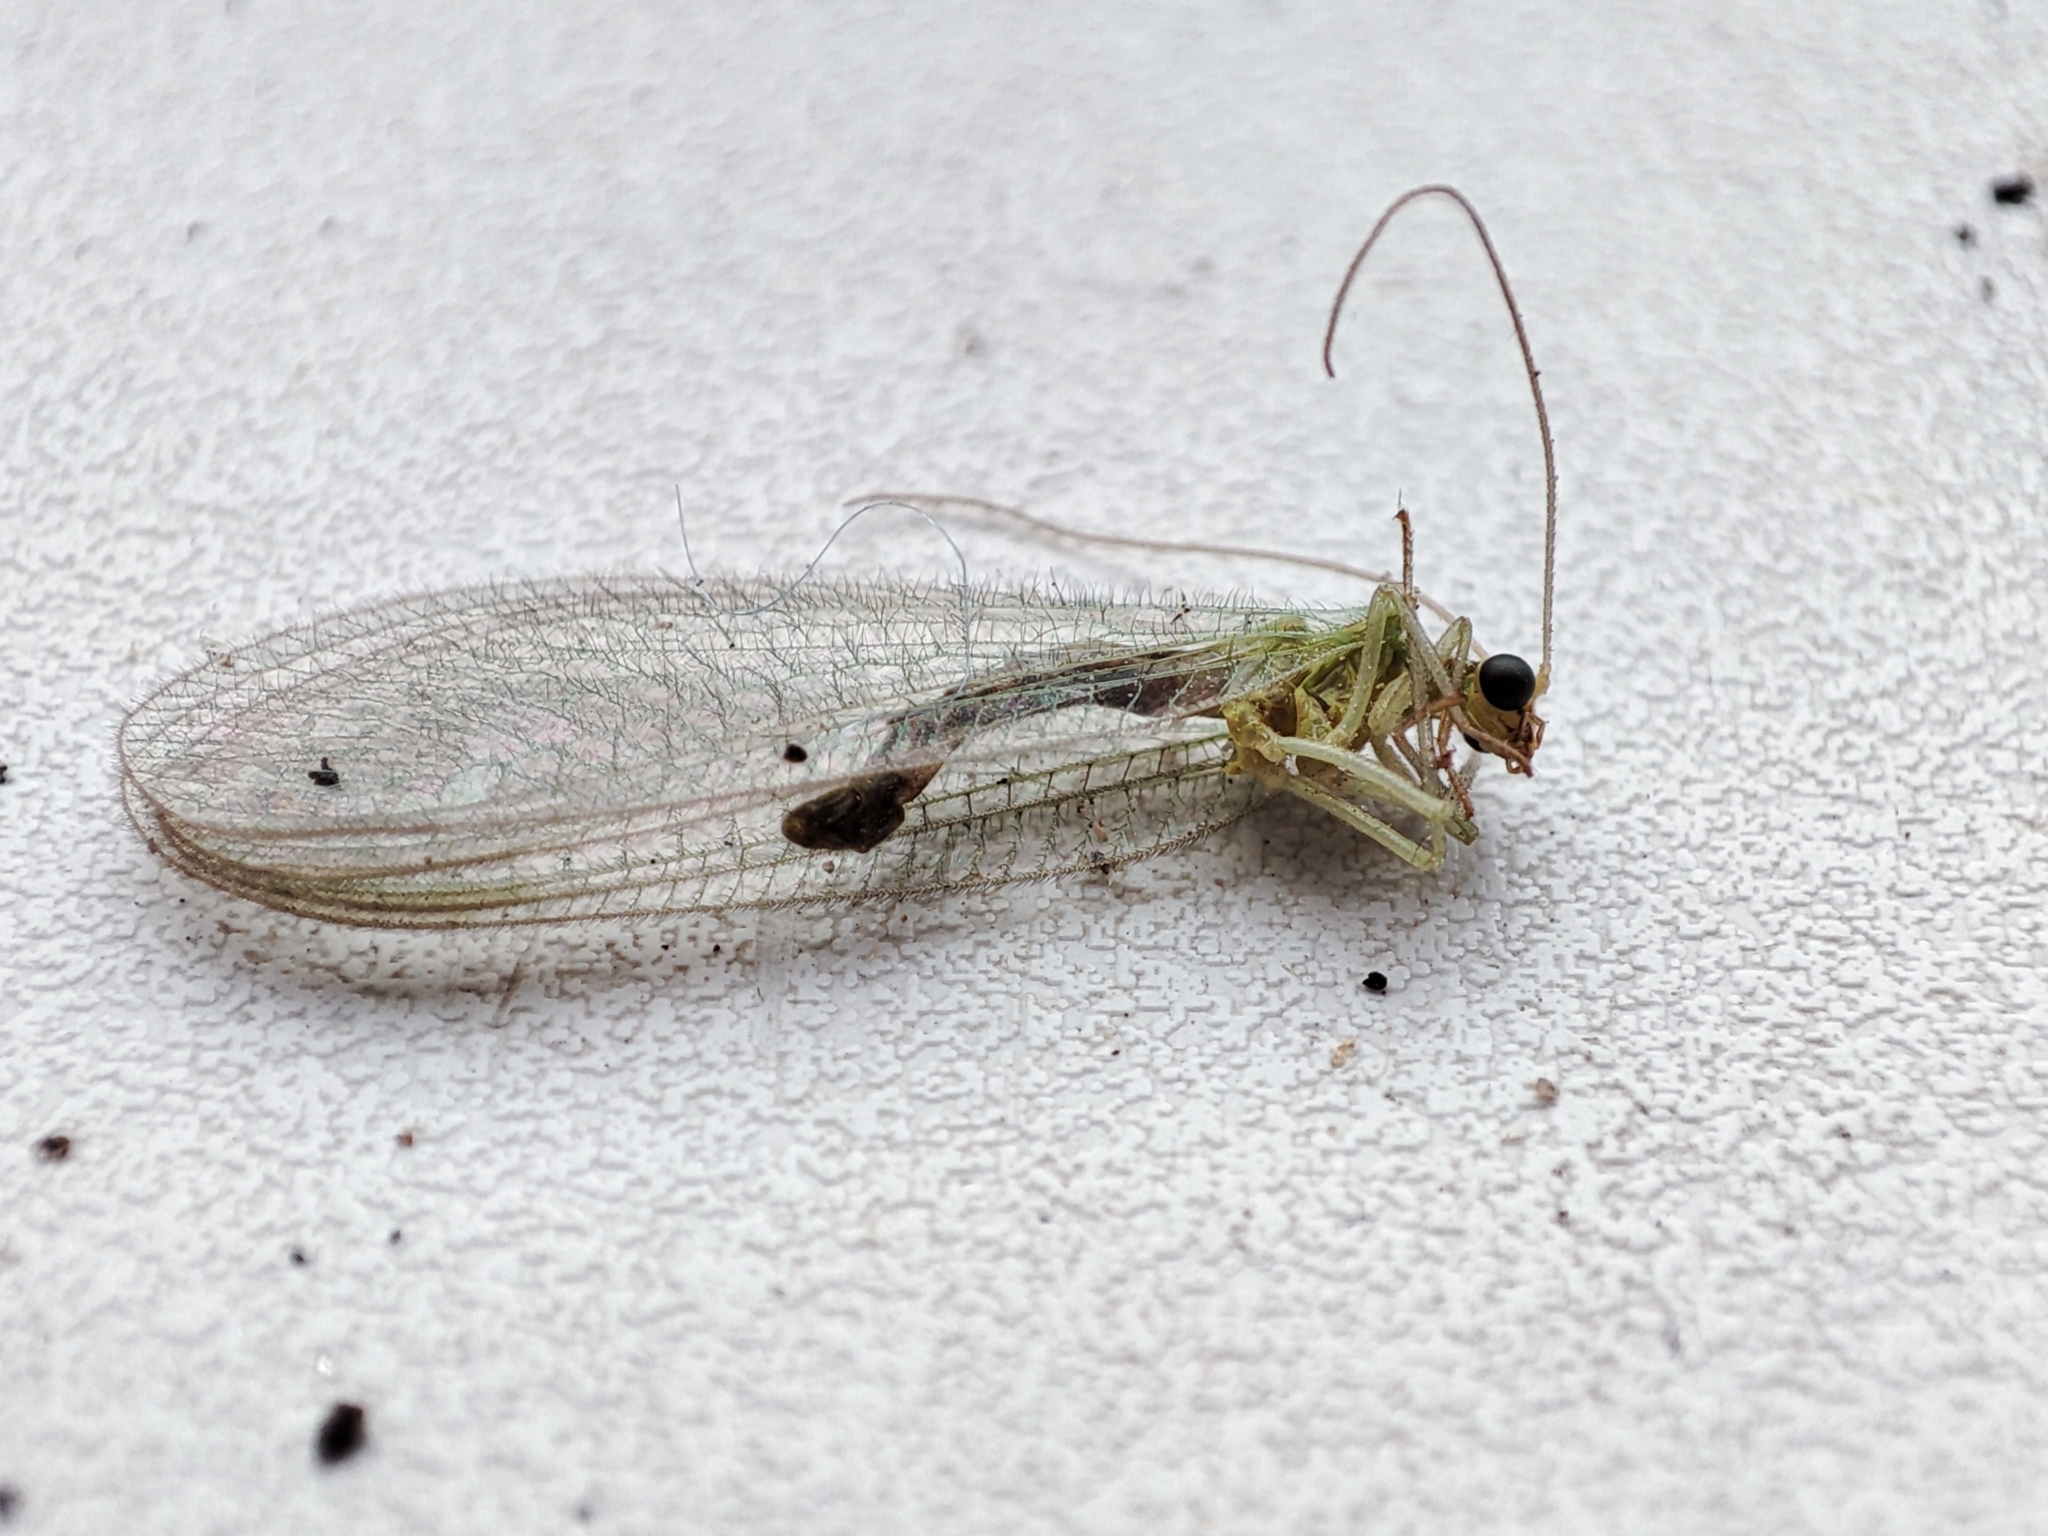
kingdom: Animalia
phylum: Arthropoda
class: Insecta
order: Neuroptera
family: Chrysopidae
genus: Chrysoperla
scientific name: Chrysoperla
